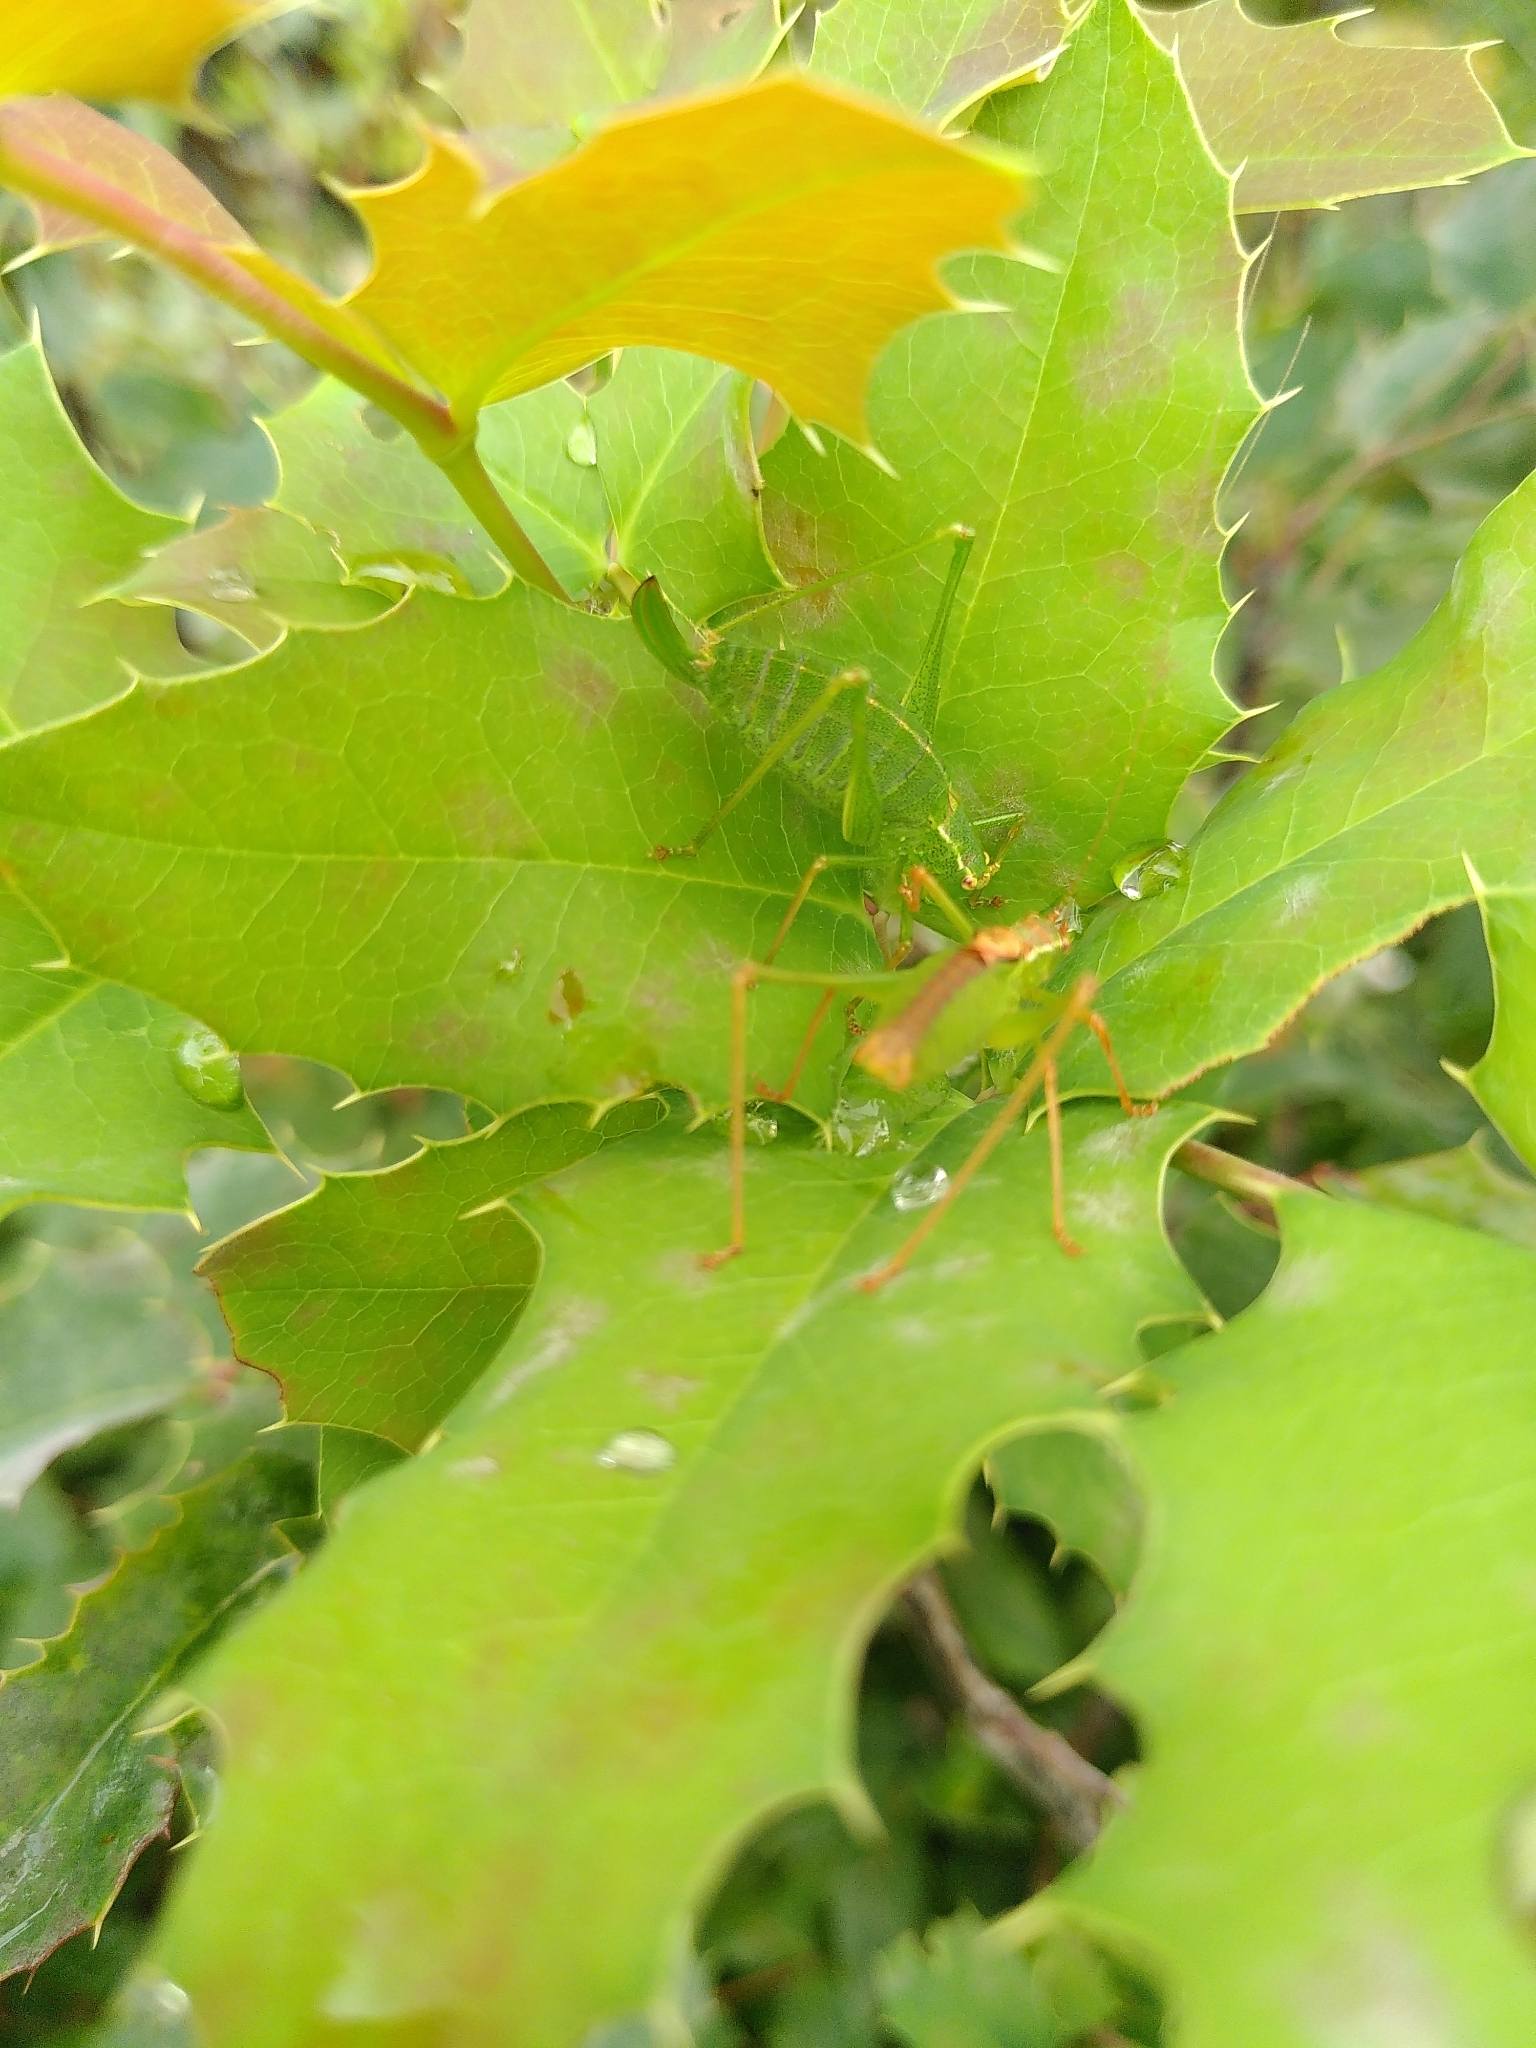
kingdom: Animalia
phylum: Arthropoda
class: Insecta
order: Orthoptera
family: Tettigoniidae
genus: Leptophyes
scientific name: Leptophyes punctatissima
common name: Speckled bush-cricket
